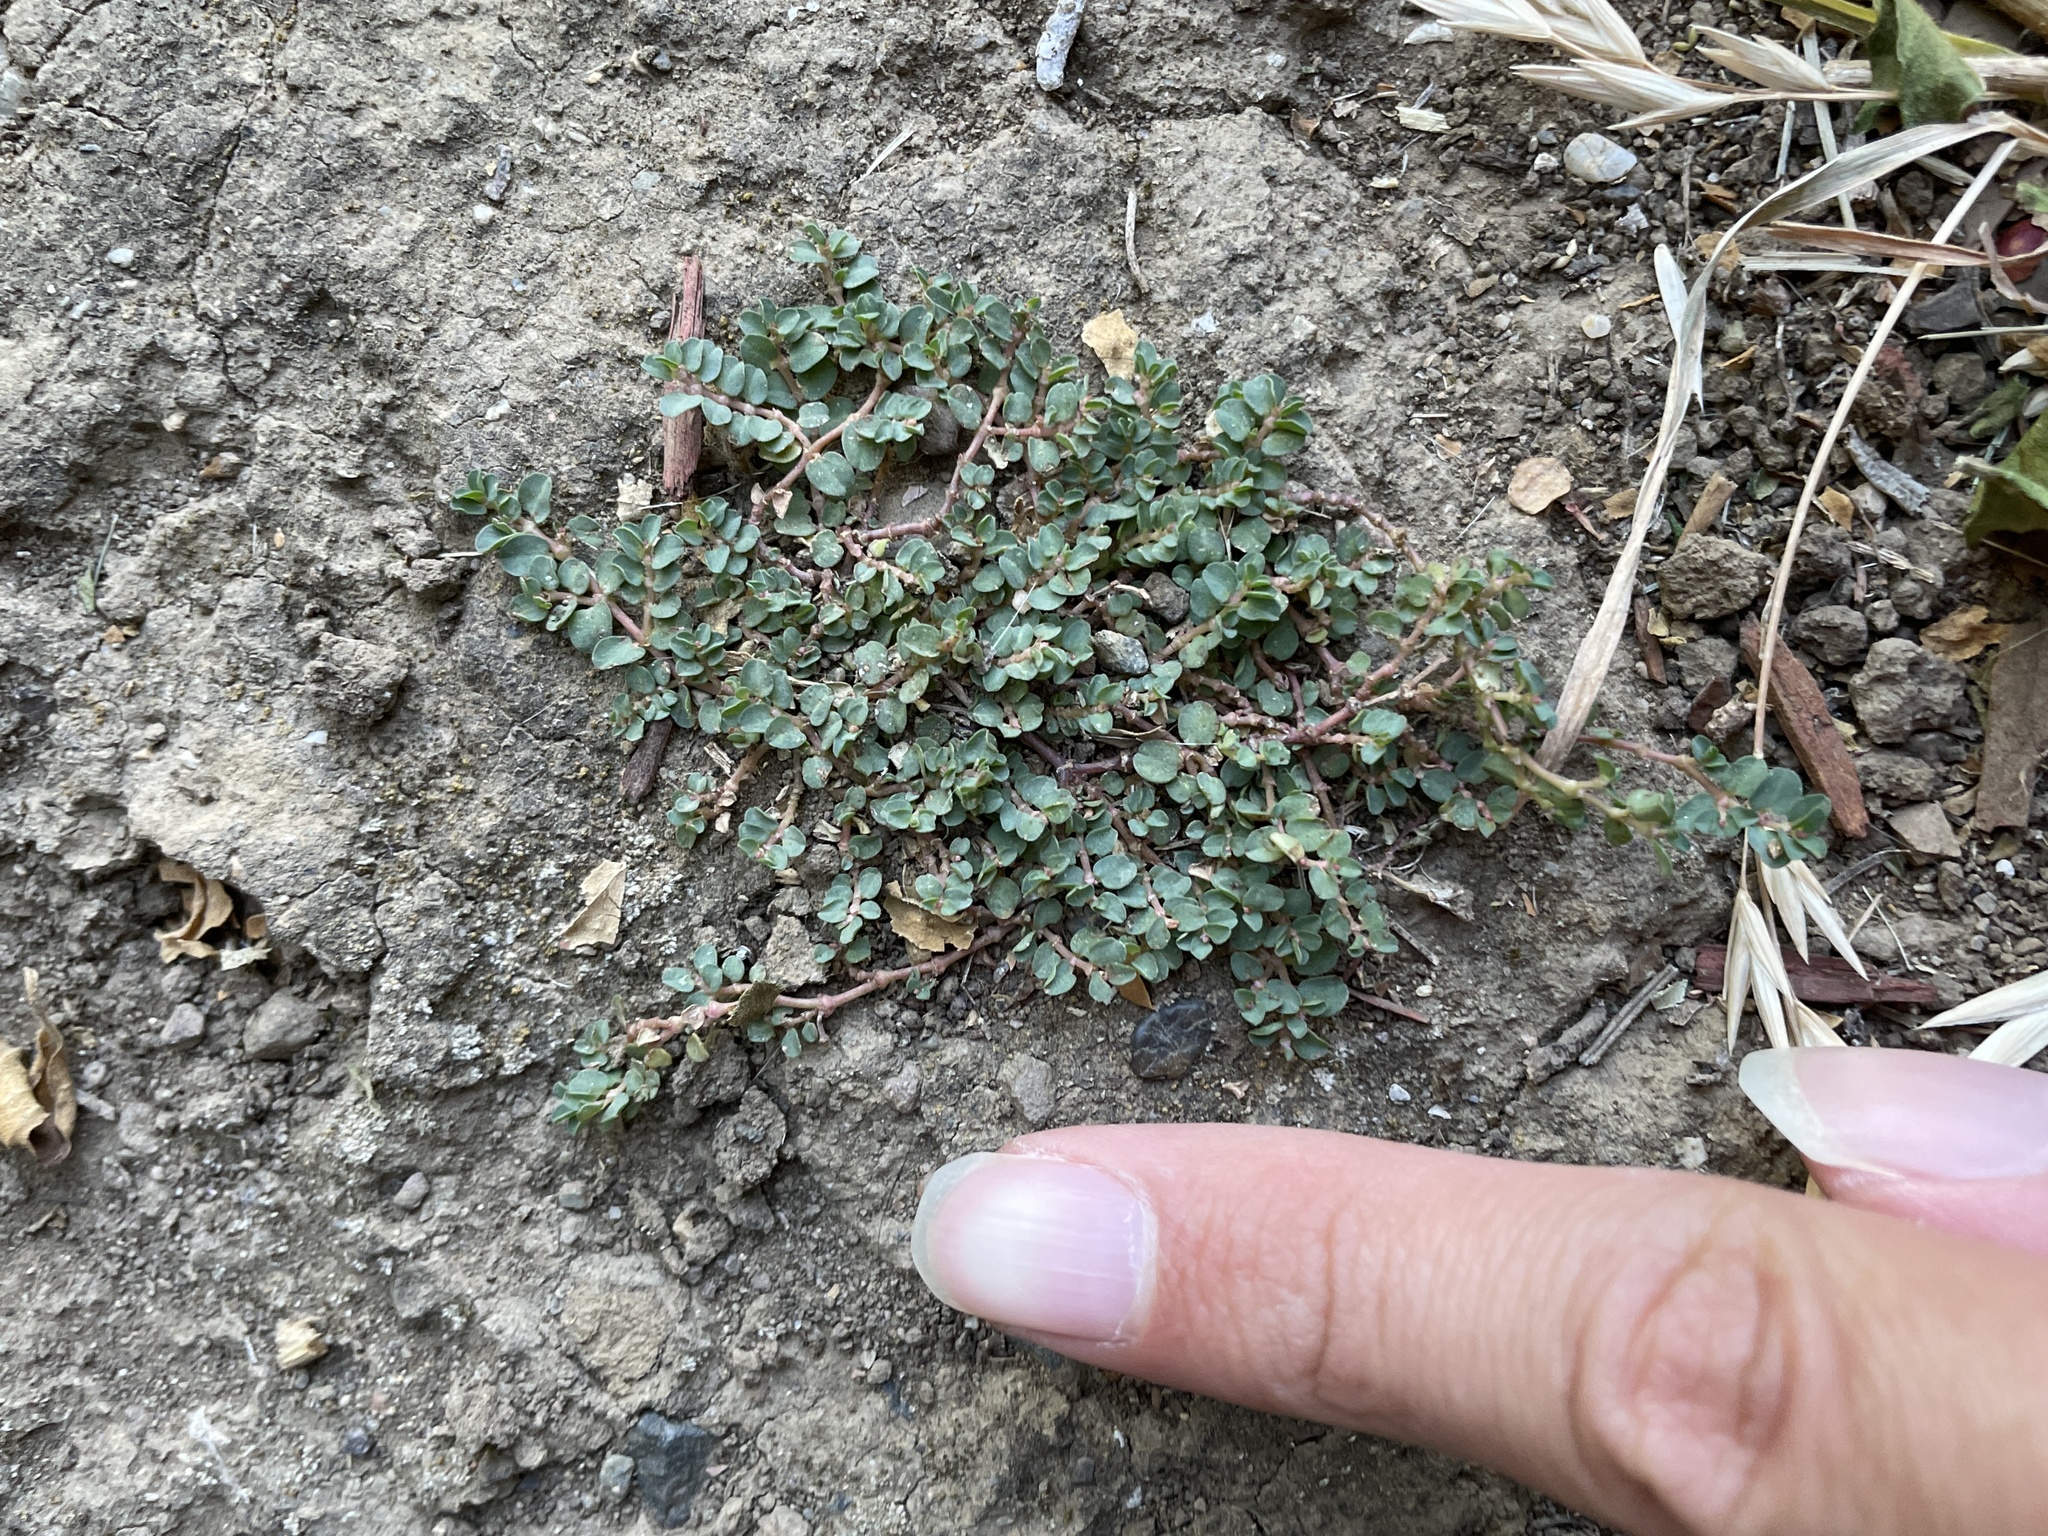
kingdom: Plantae
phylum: Tracheophyta
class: Magnoliopsida
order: Malpighiales
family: Euphorbiaceae
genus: Euphorbia
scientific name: Euphorbia serpens
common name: Matted sandmat
